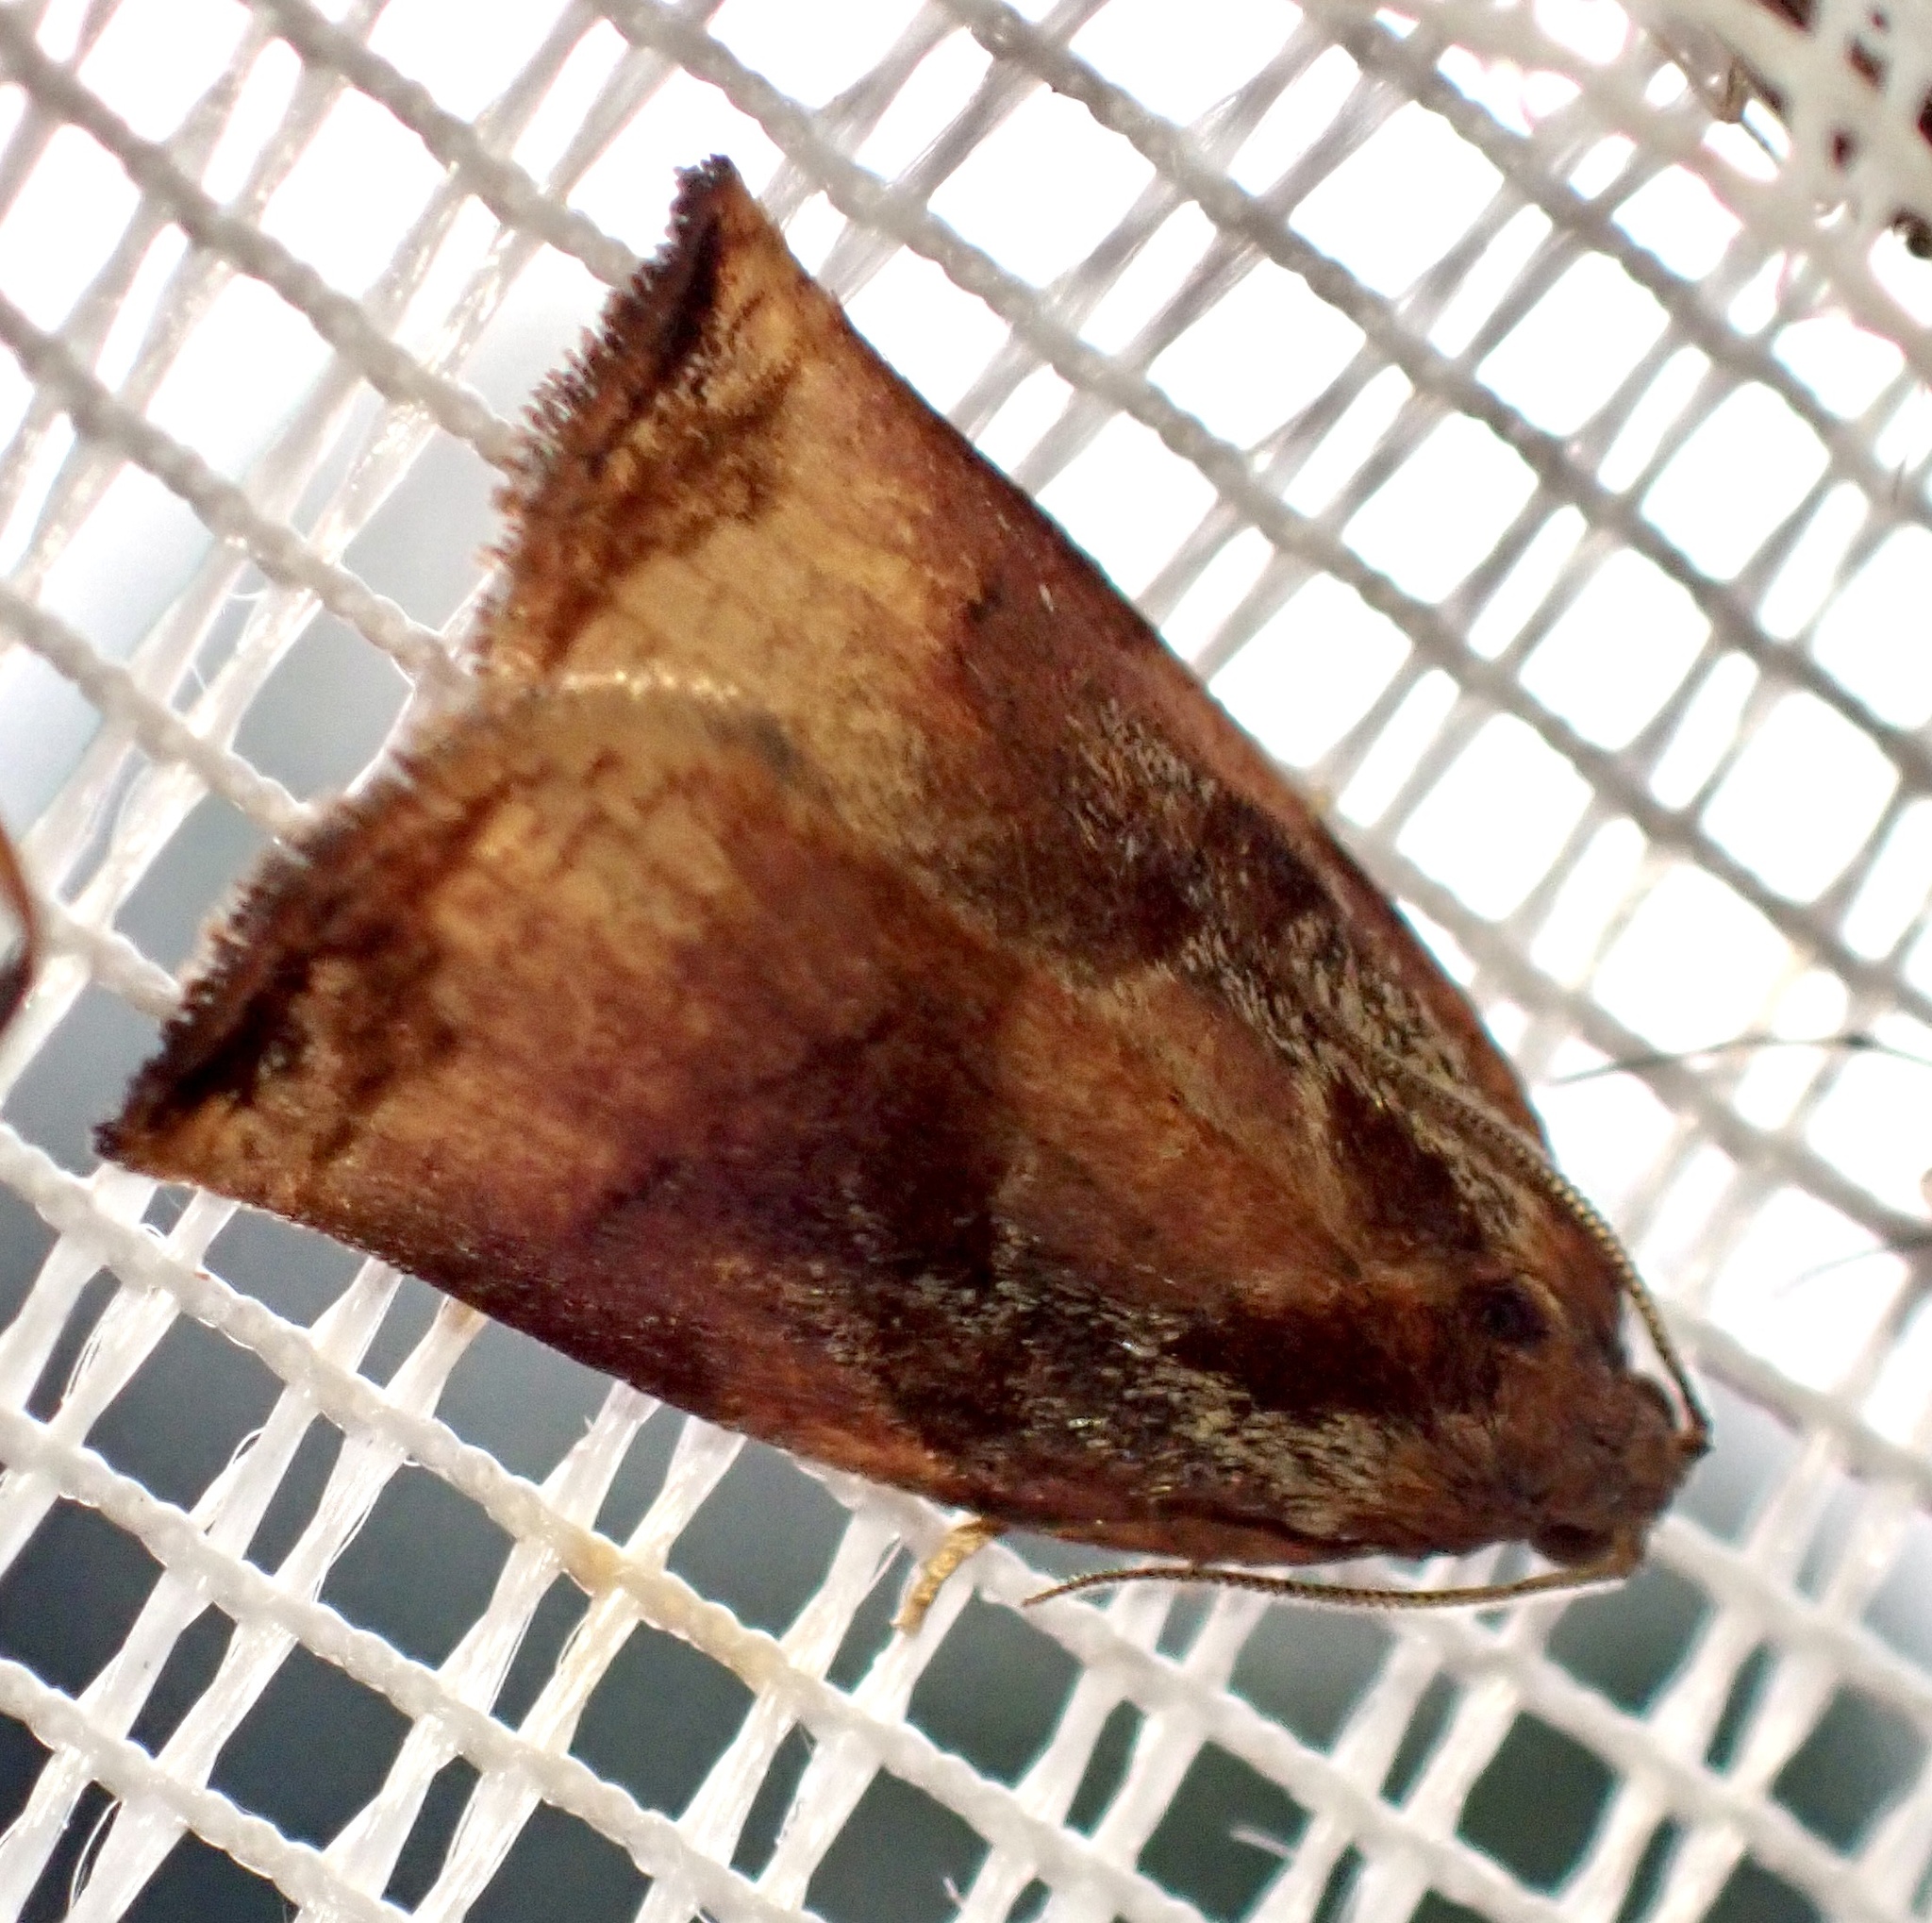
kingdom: Animalia
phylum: Arthropoda
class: Insecta
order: Lepidoptera
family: Tortricidae
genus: Archips
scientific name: Archips podana
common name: Large fruit-tree tortrix
